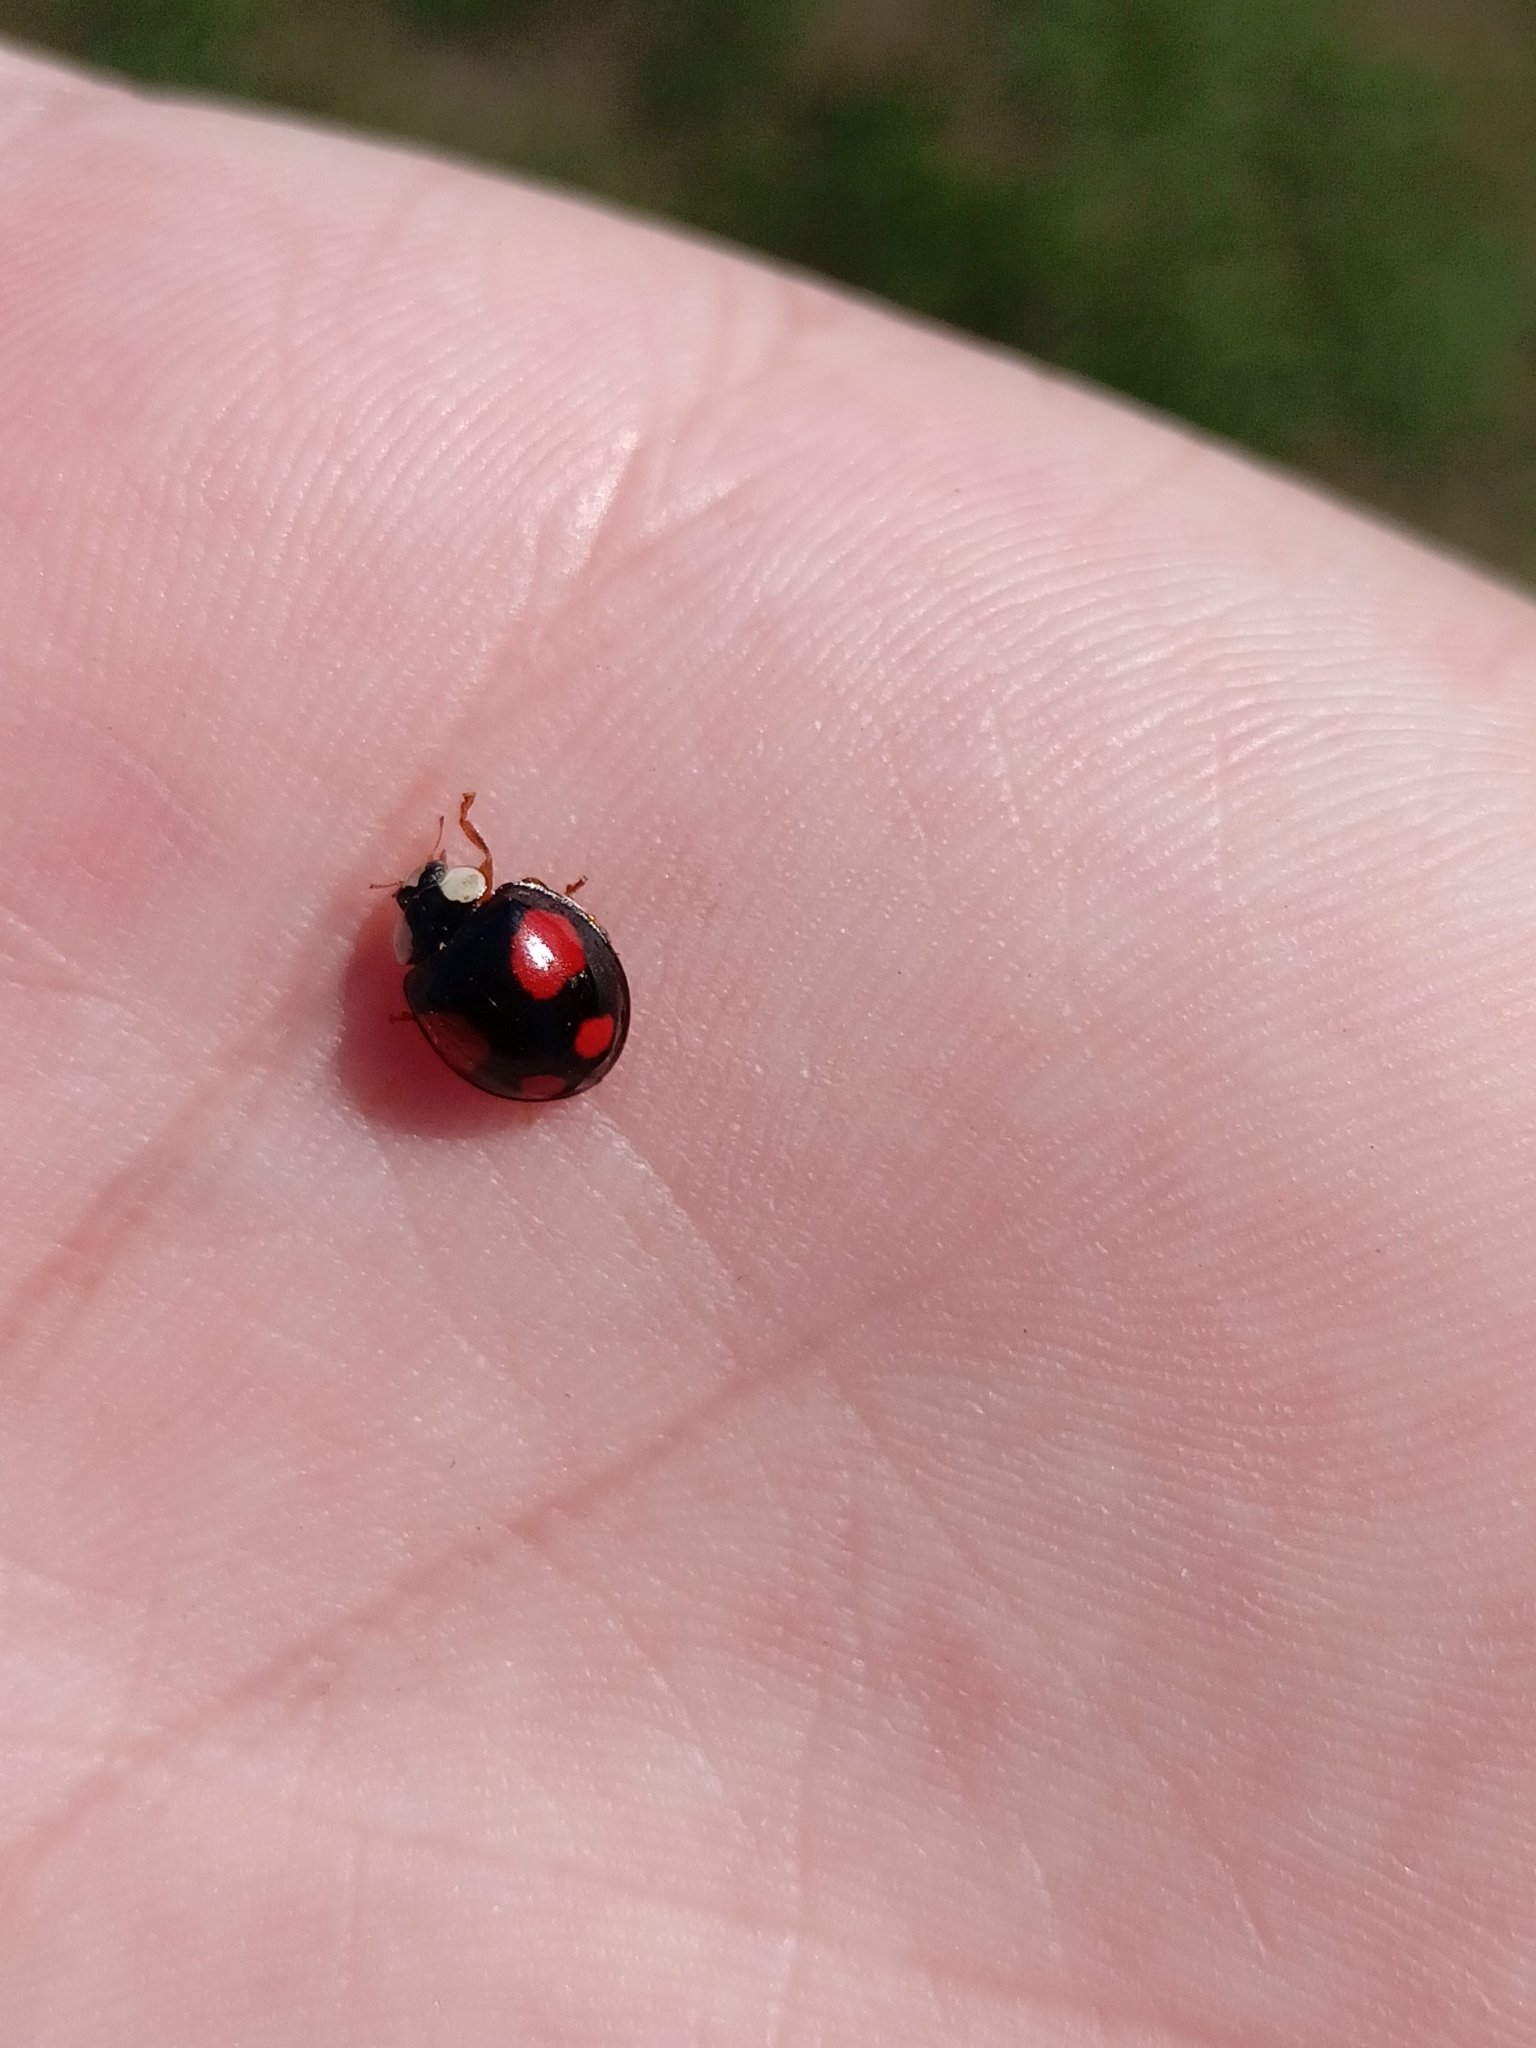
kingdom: Animalia
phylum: Arthropoda
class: Insecta
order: Coleoptera
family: Coccinellidae
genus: Harmonia
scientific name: Harmonia axyridis
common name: Harlequin ladybird
